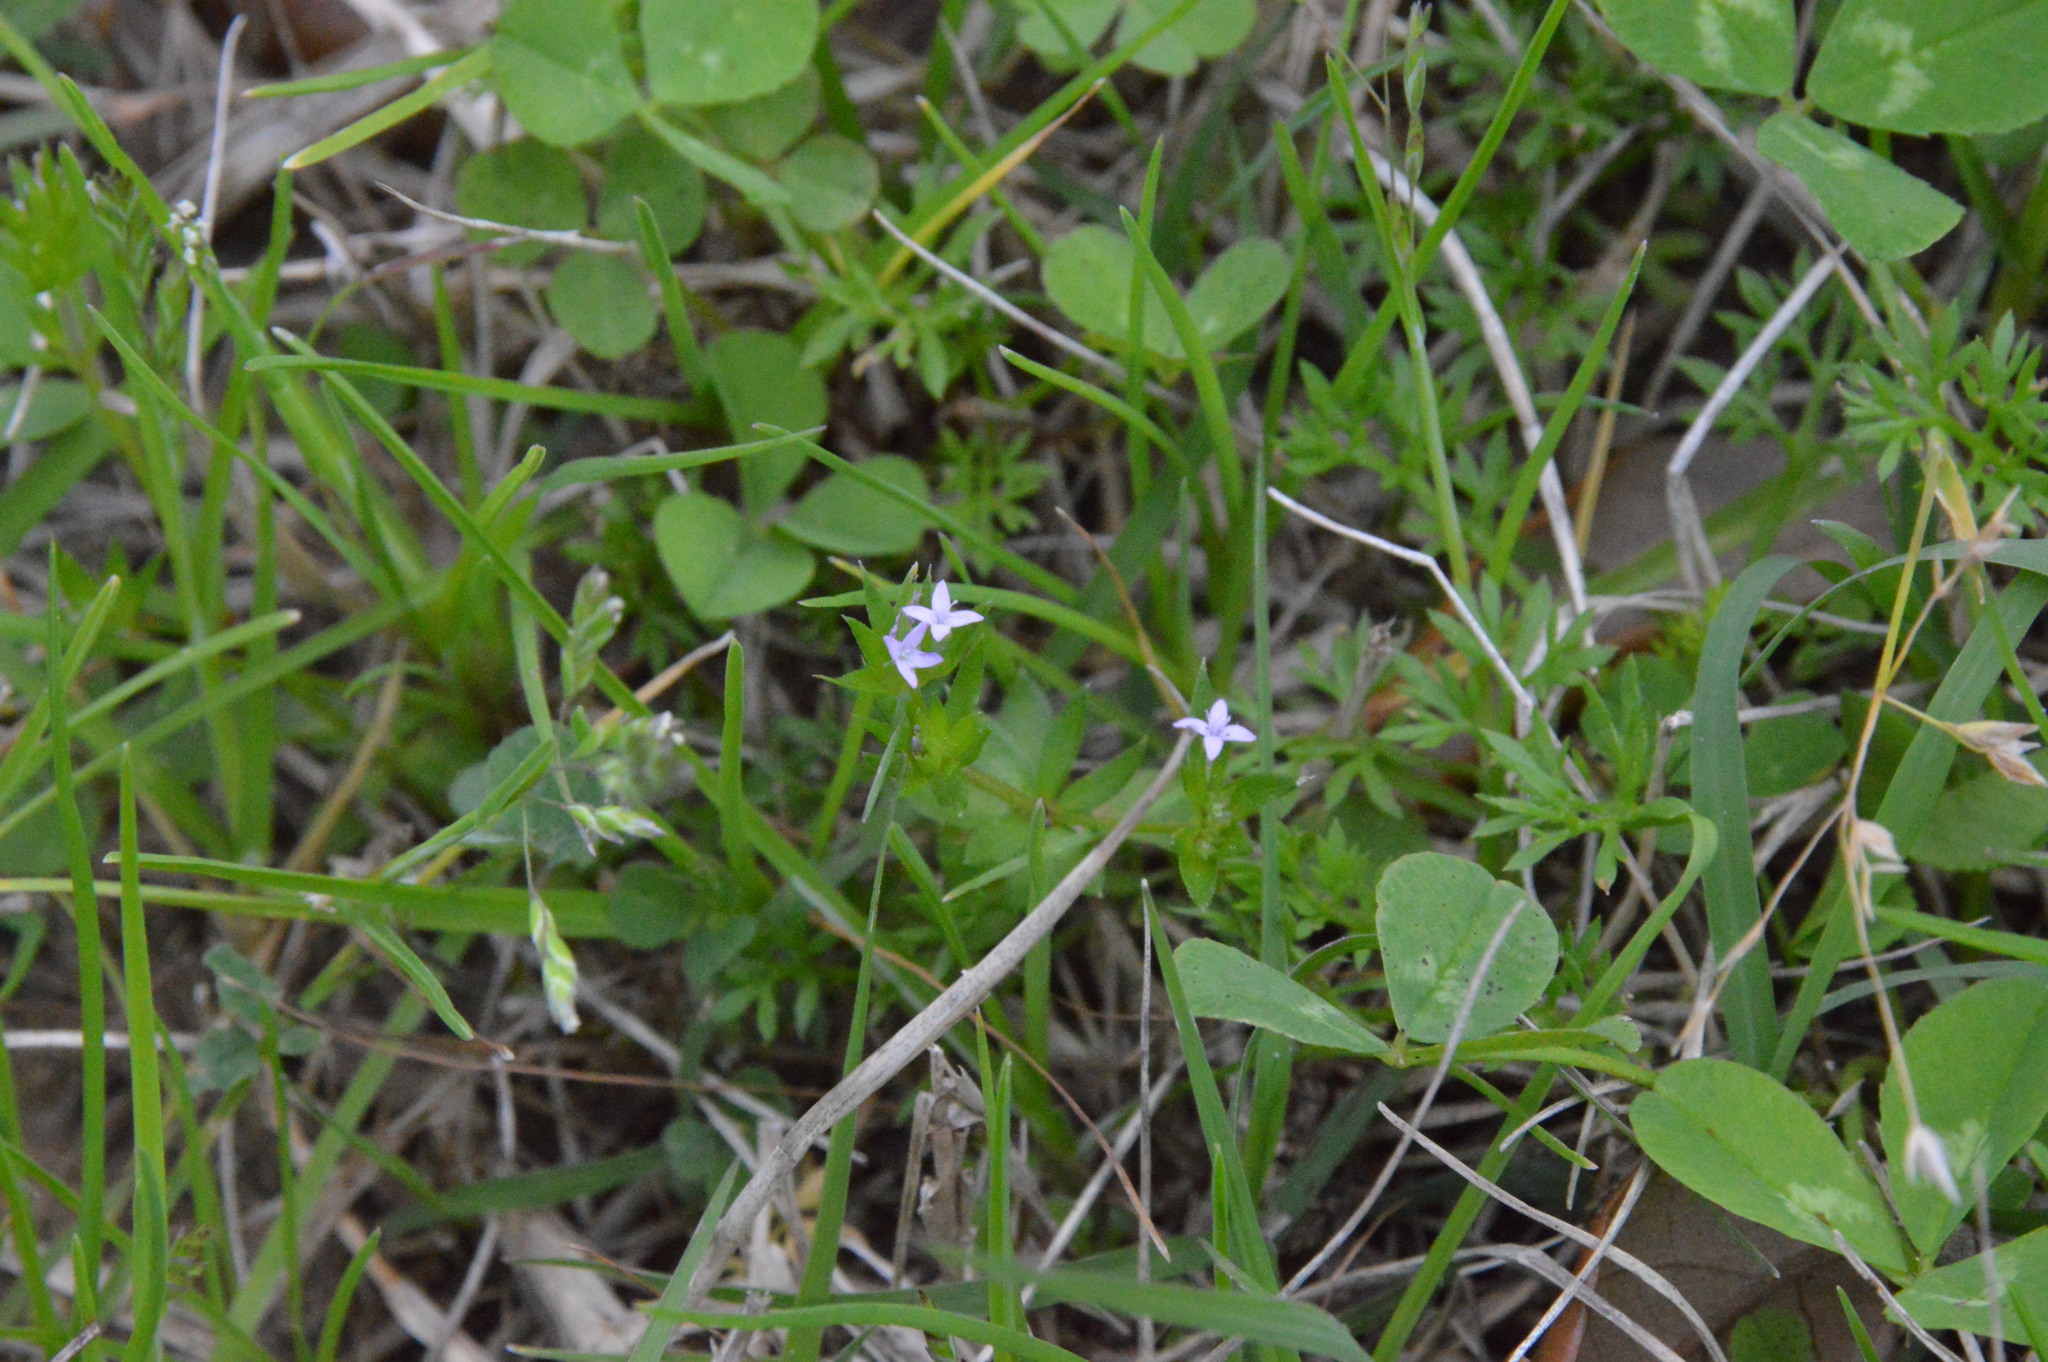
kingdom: Plantae
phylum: Tracheophyta
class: Magnoliopsida
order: Gentianales
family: Rubiaceae
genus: Sherardia
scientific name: Sherardia arvensis
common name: Field madder
